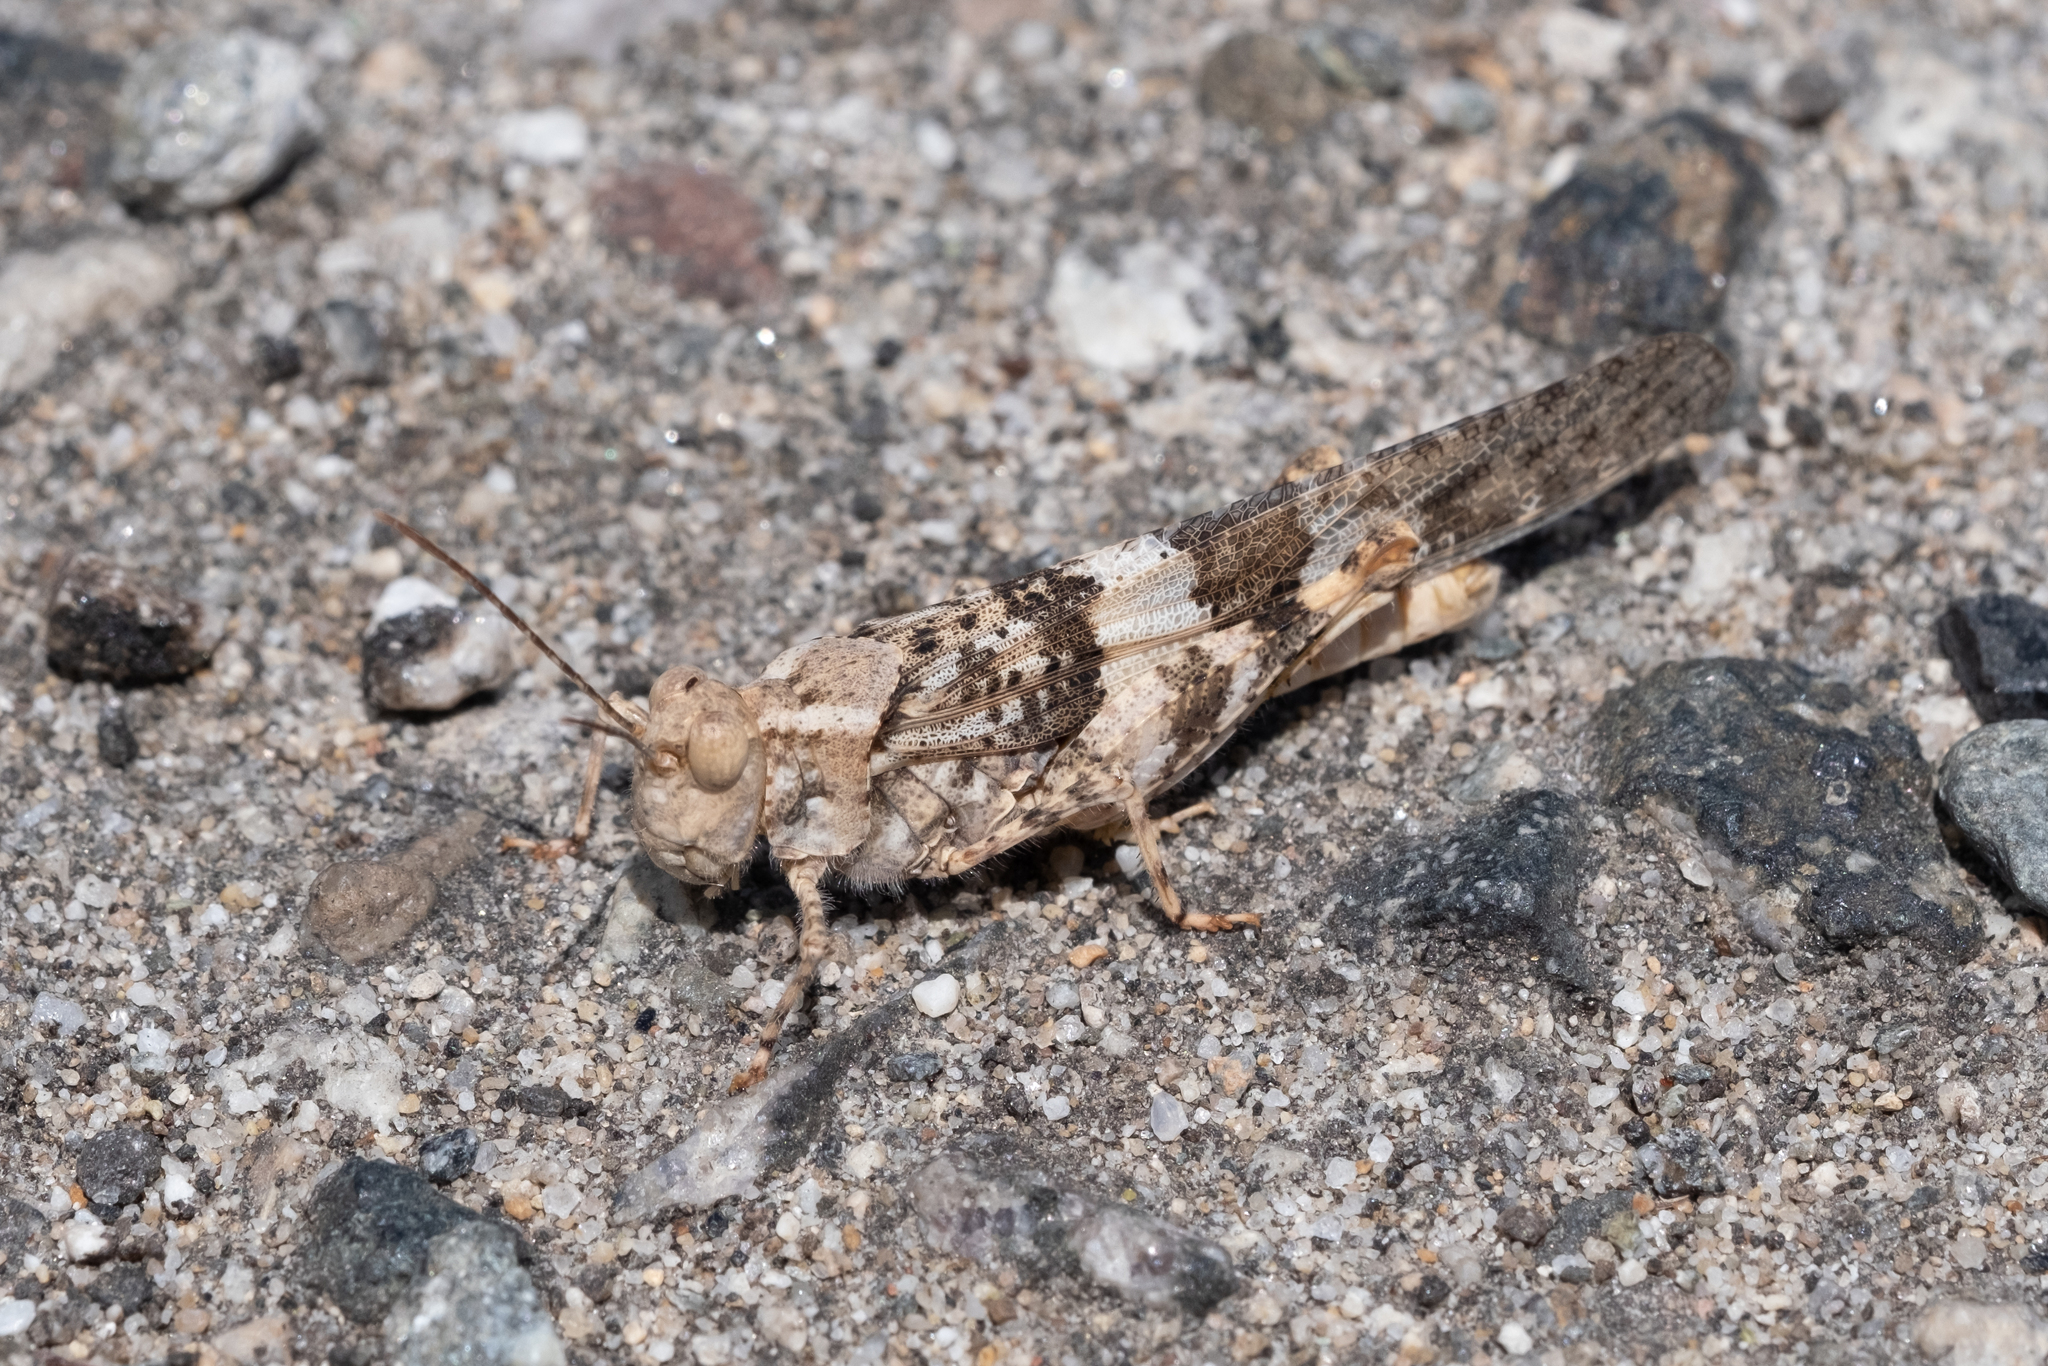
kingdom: Animalia
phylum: Arthropoda
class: Insecta
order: Orthoptera
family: Acrididae
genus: Trimerotropis
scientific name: Trimerotropis pallidipennis
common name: Pallid-winged grasshopper
